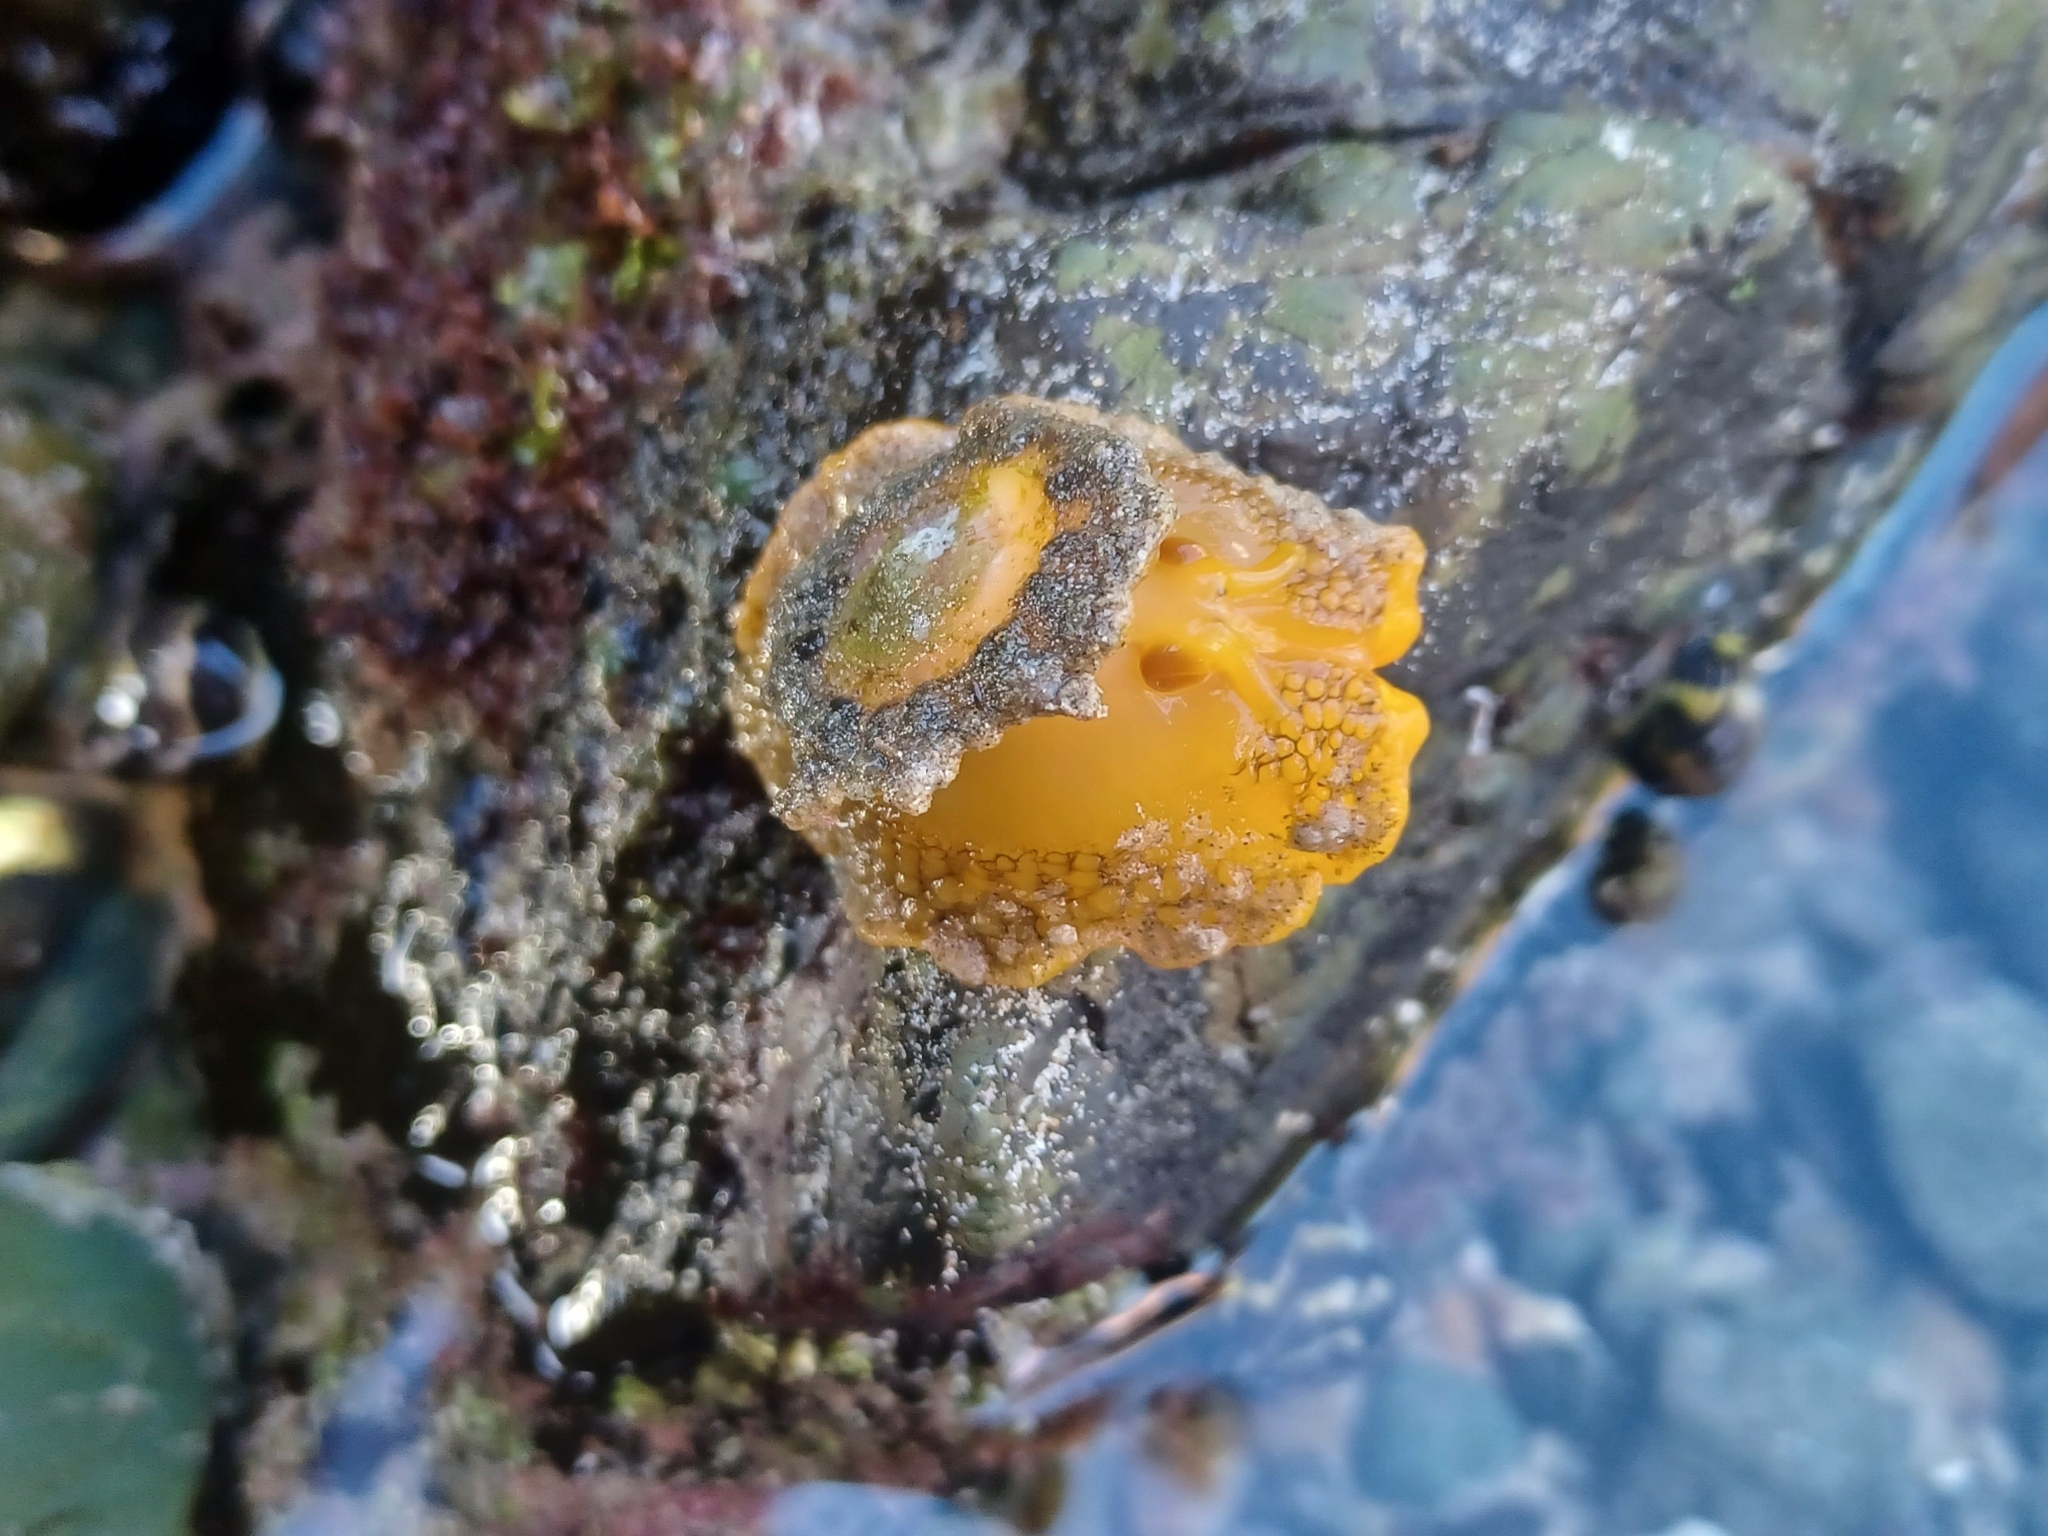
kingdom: Animalia
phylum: Mollusca
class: Gastropoda
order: Umbraculida
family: Umbraculidae
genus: Umbraculum
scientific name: Umbraculum umbraculum
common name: Atlantic umbrella slug
